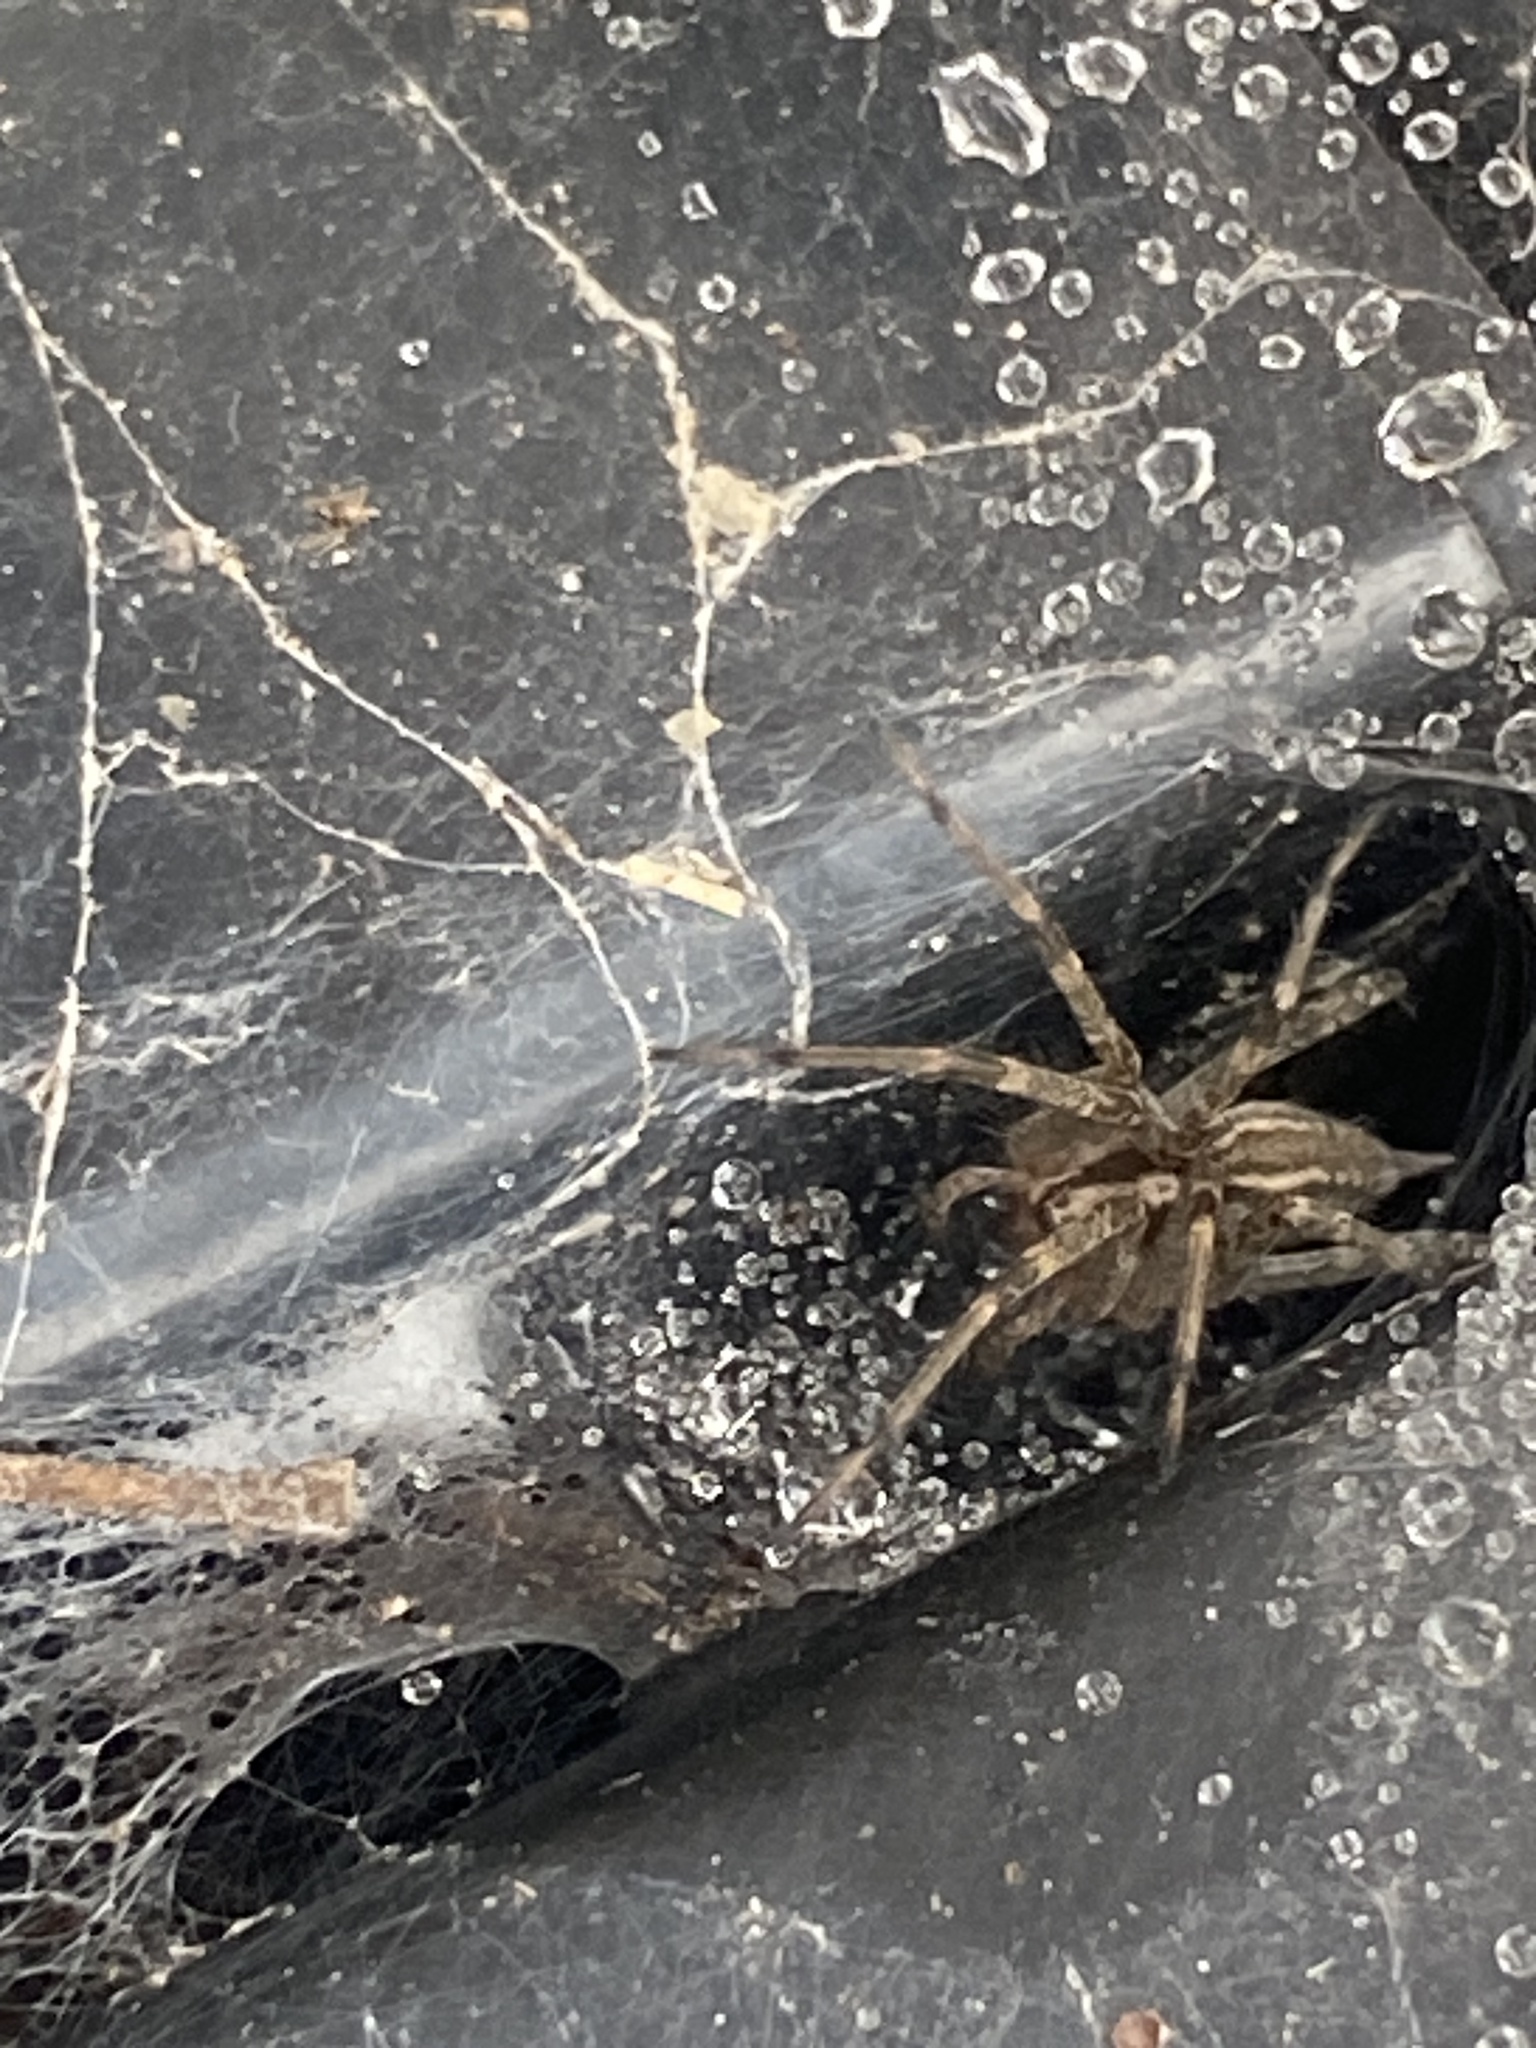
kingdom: Animalia
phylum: Arthropoda
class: Arachnida
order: Araneae
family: Agelenidae
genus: Agelenopsis
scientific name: Agelenopsis
